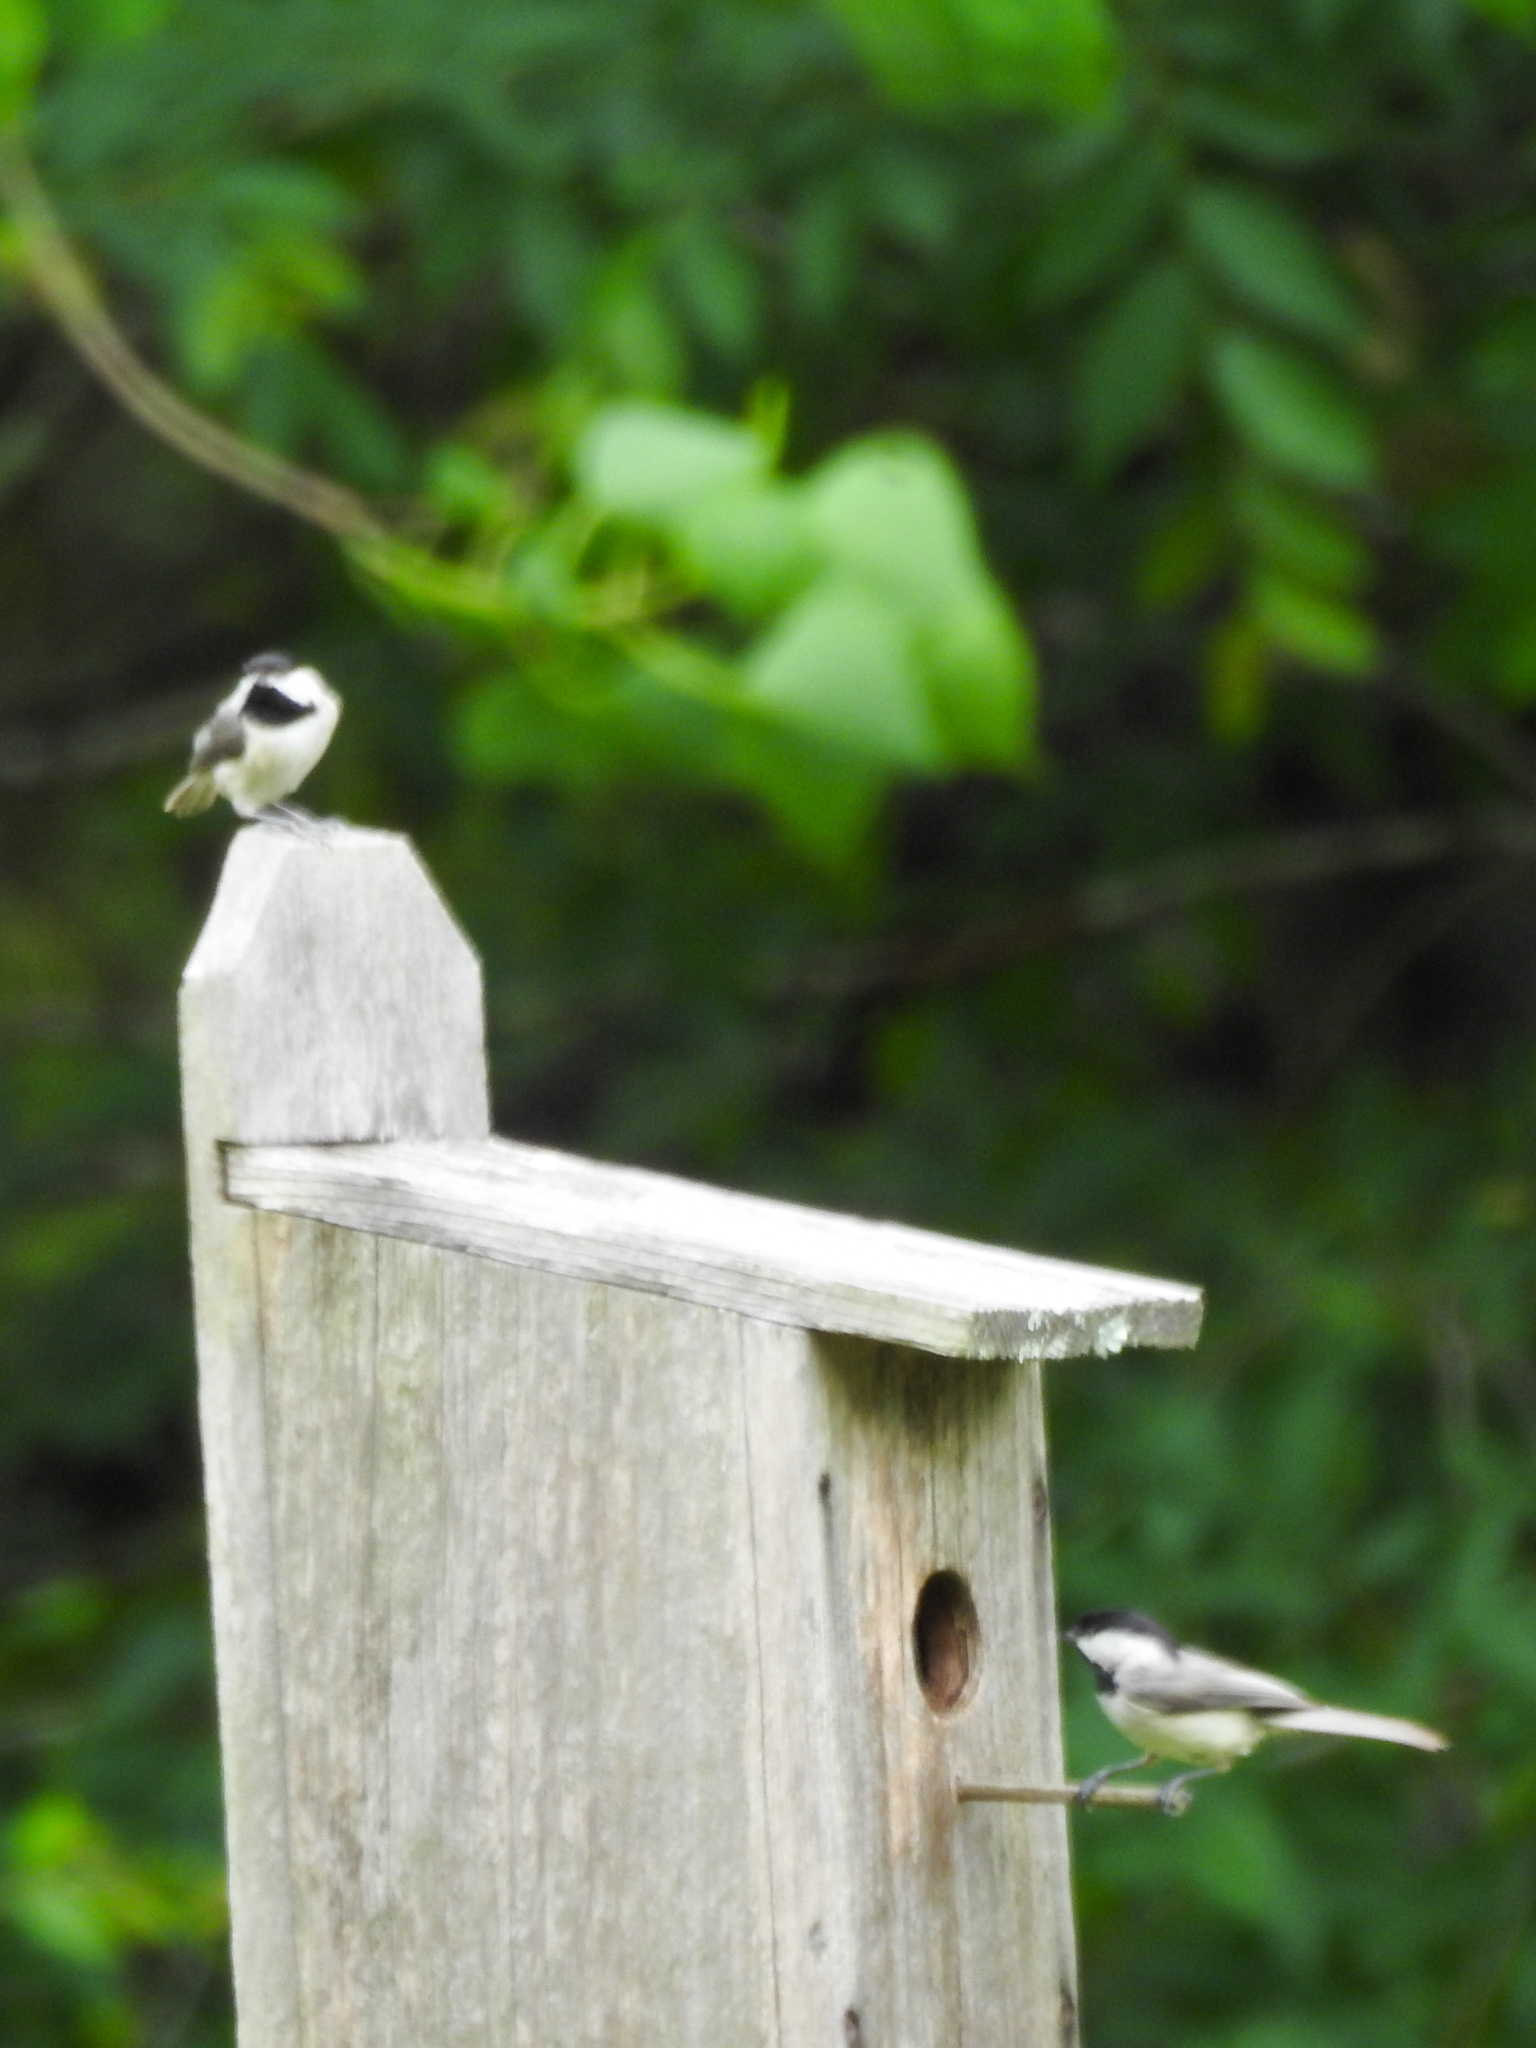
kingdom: Animalia
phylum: Chordata
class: Aves
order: Passeriformes
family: Paridae
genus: Poecile
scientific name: Poecile carolinensis
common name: Carolina chickadee
